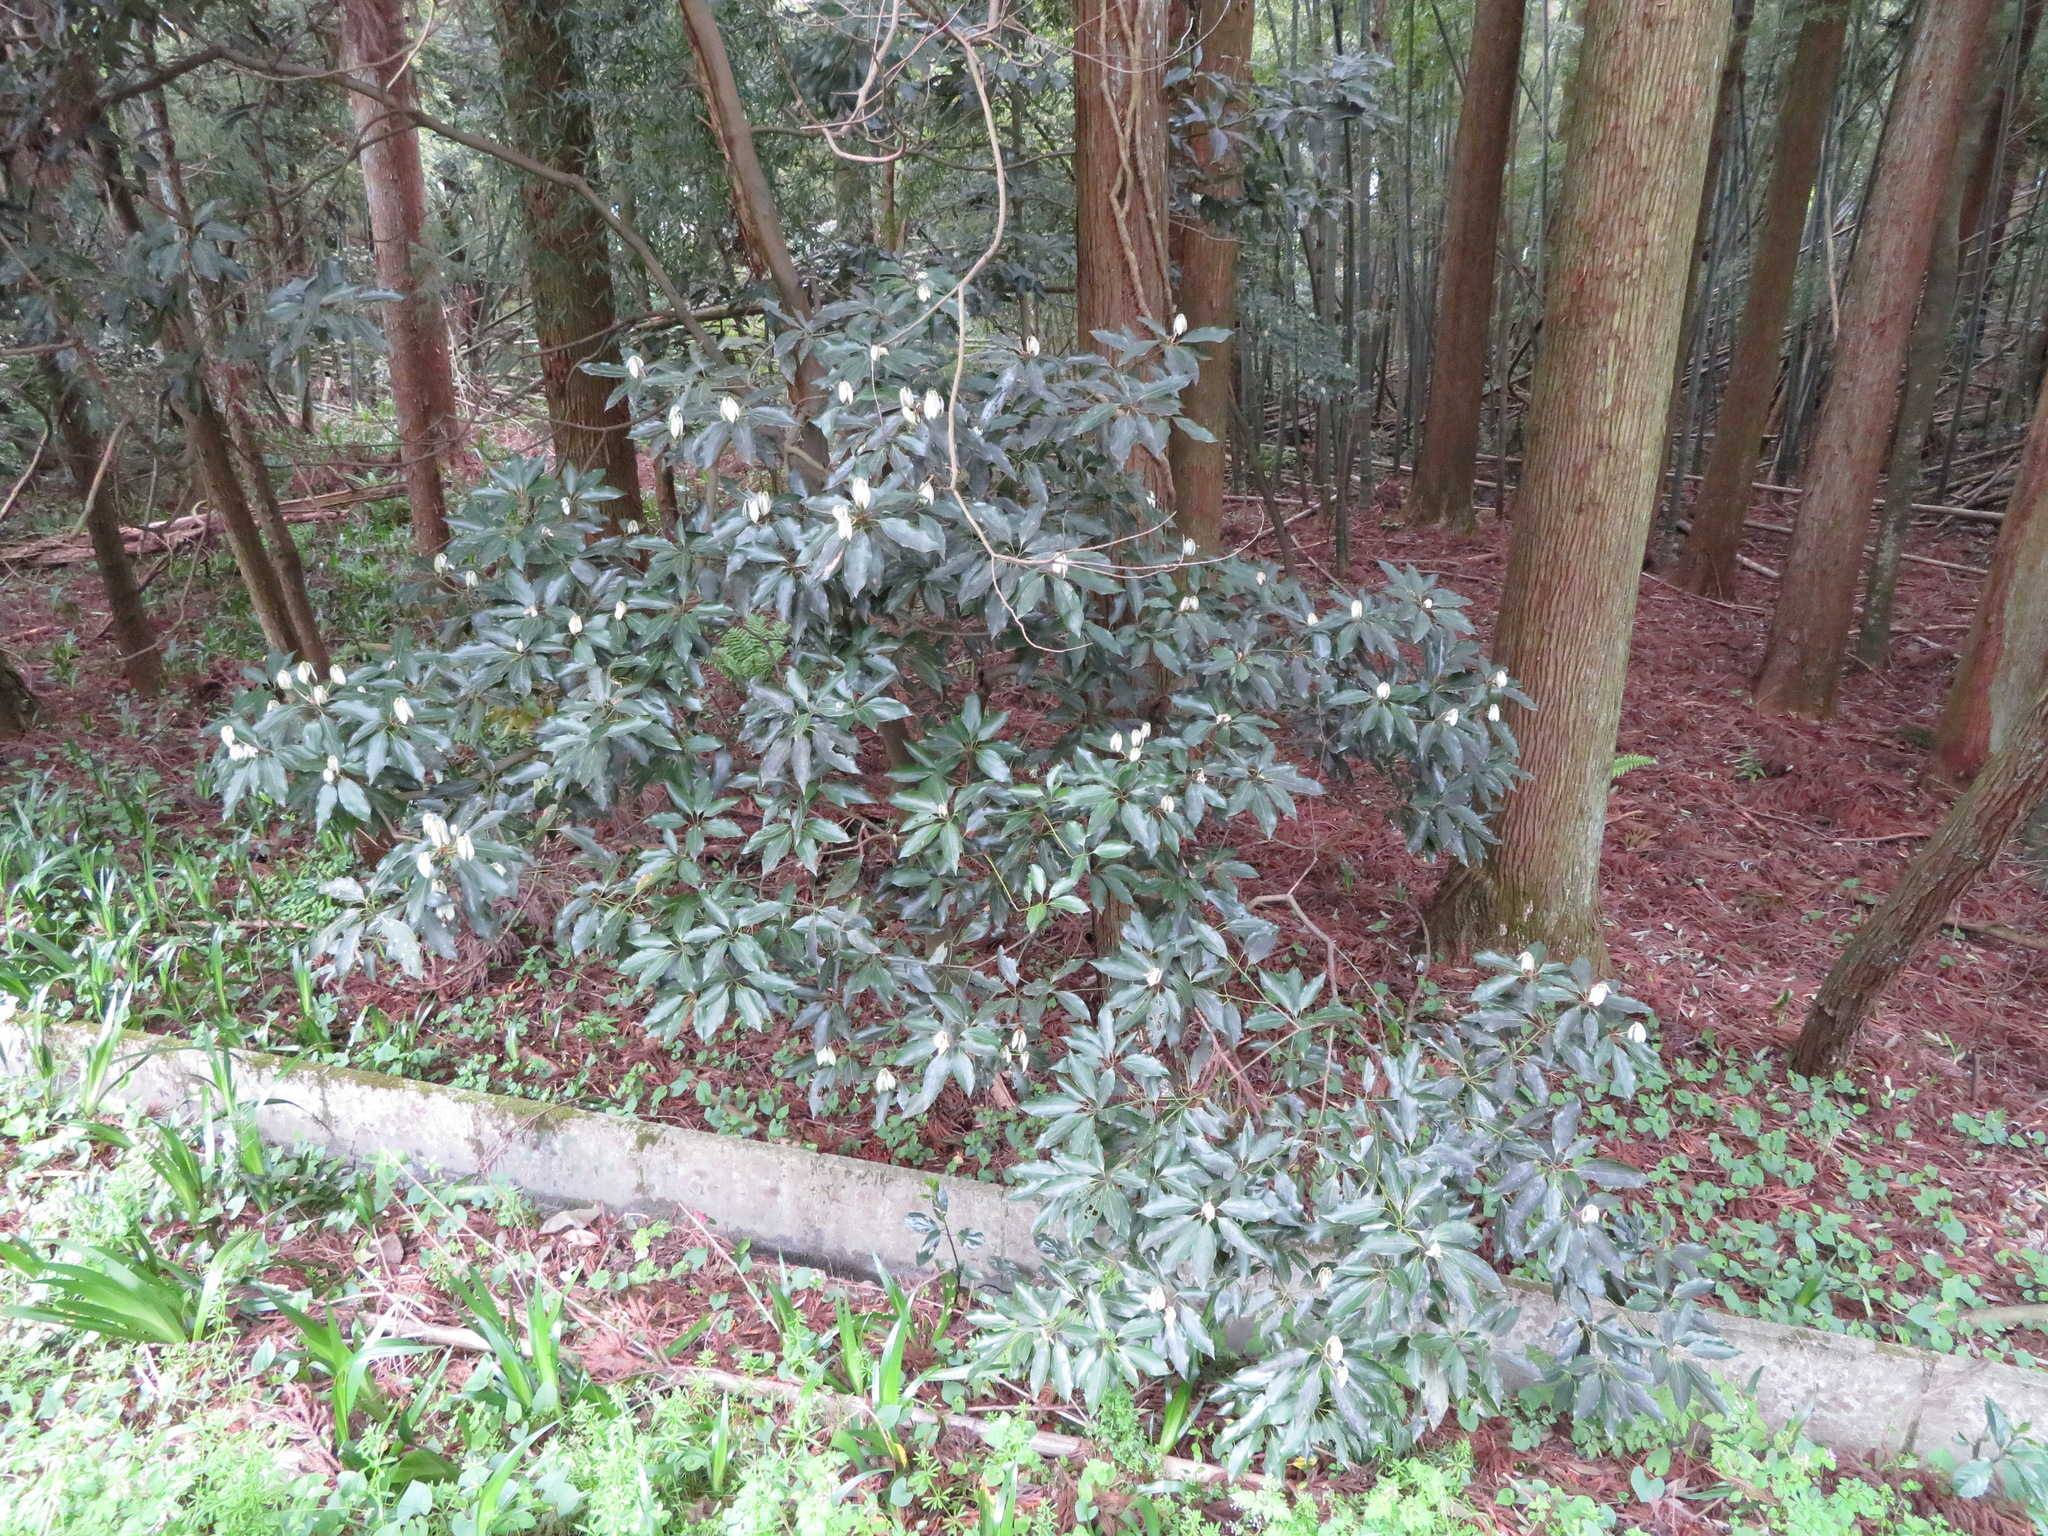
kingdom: Plantae
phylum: Tracheophyta
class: Magnoliopsida
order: Laurales
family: Lauraceae
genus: Neolitsea
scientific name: Neolitsea sericea
